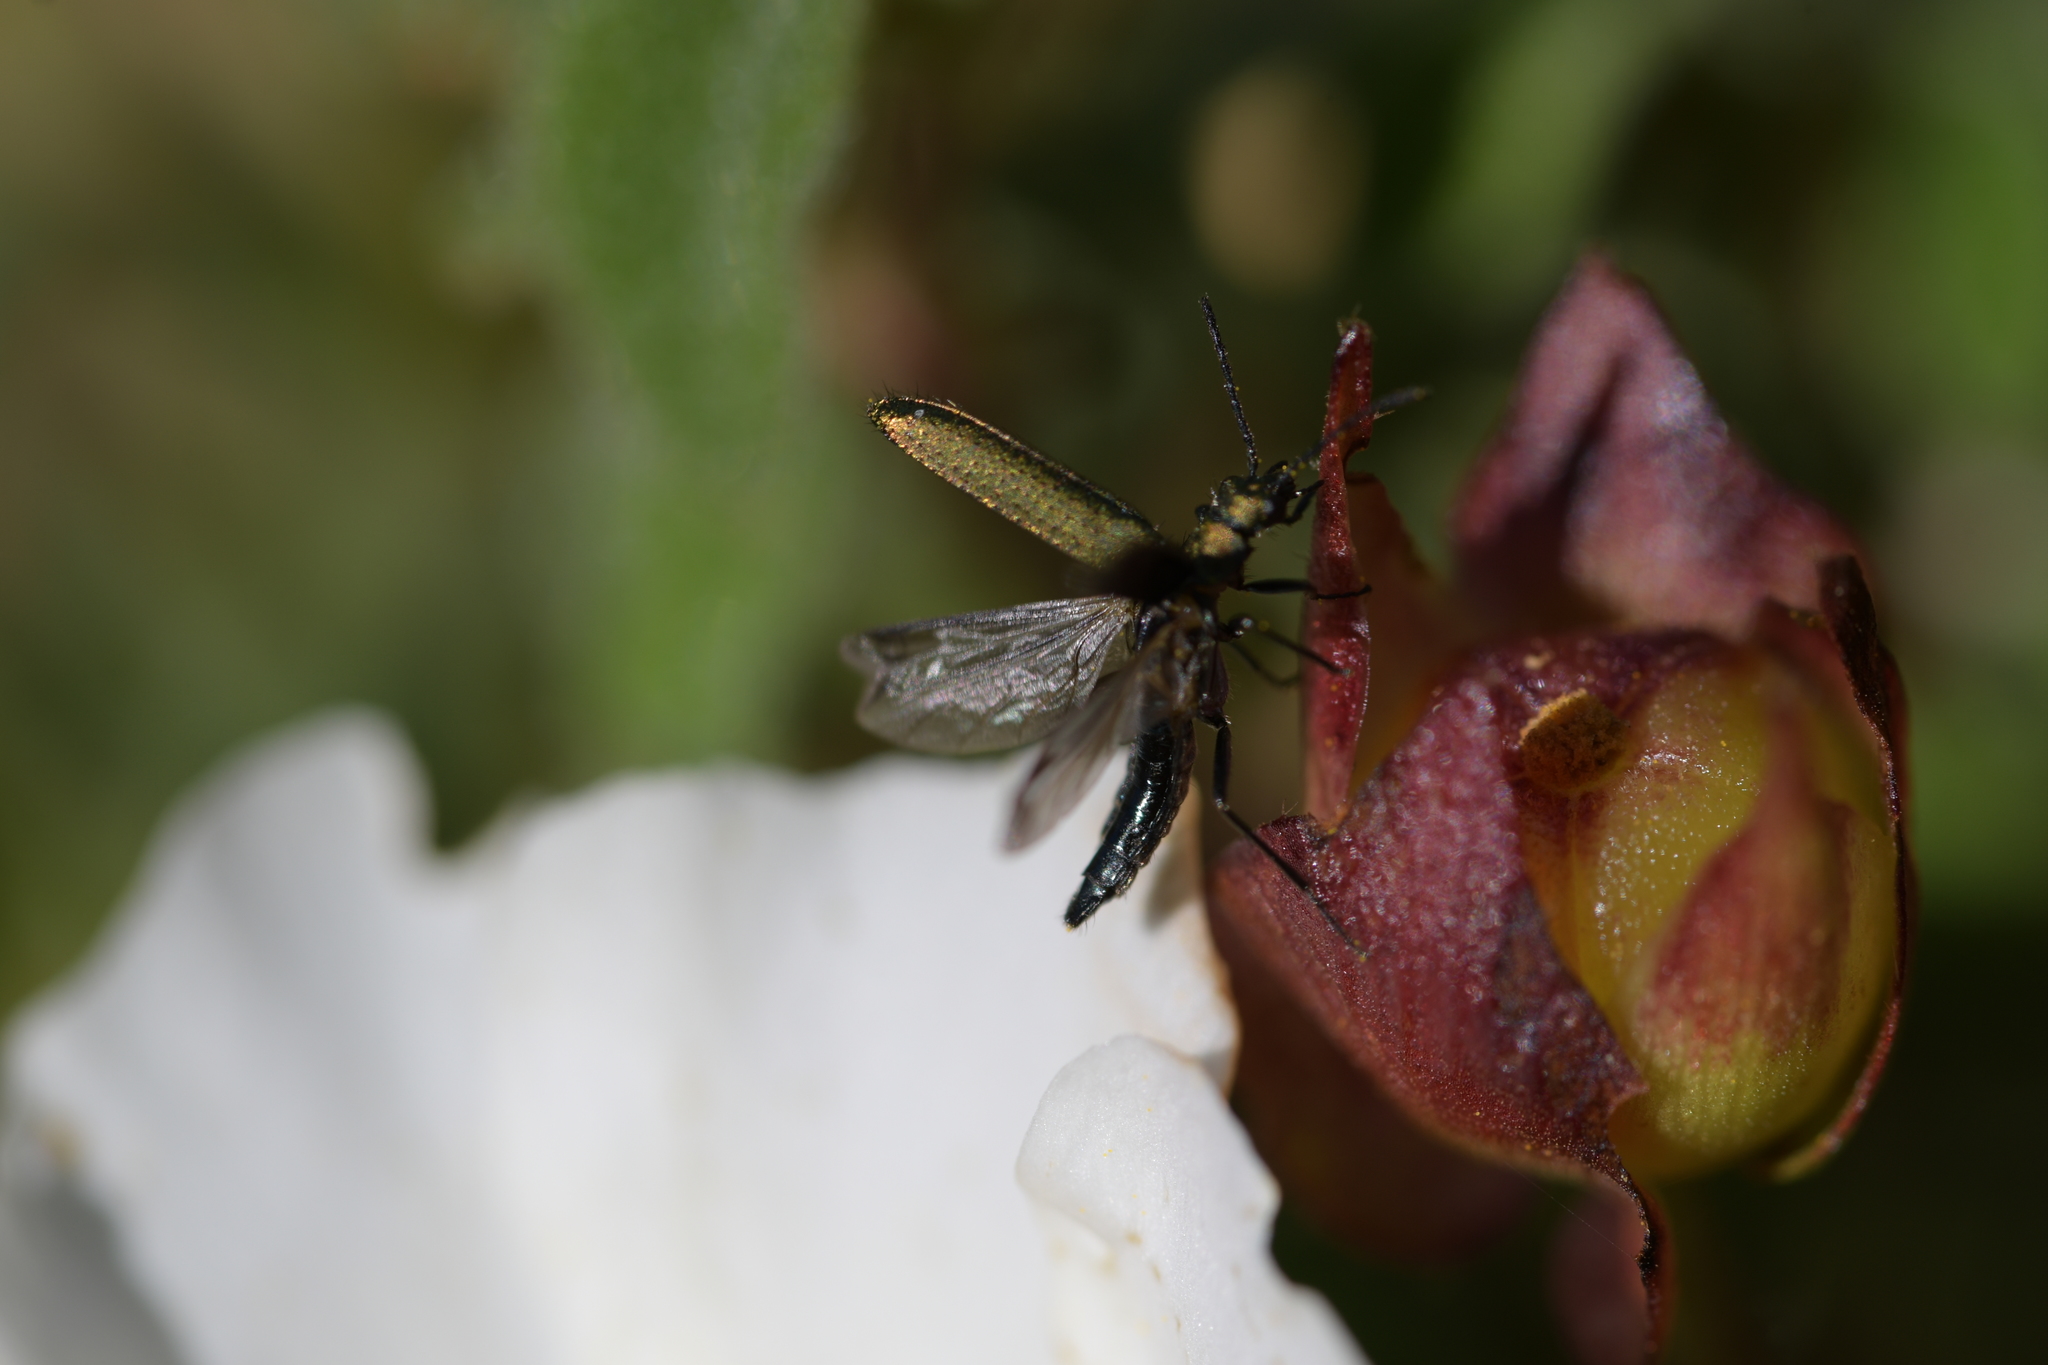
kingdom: Animalia
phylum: Arthropoda
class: Insecta
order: Coleoptera
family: Stenotrachelidae
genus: Stenotrachelus
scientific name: Stenotrachelus aeneus
